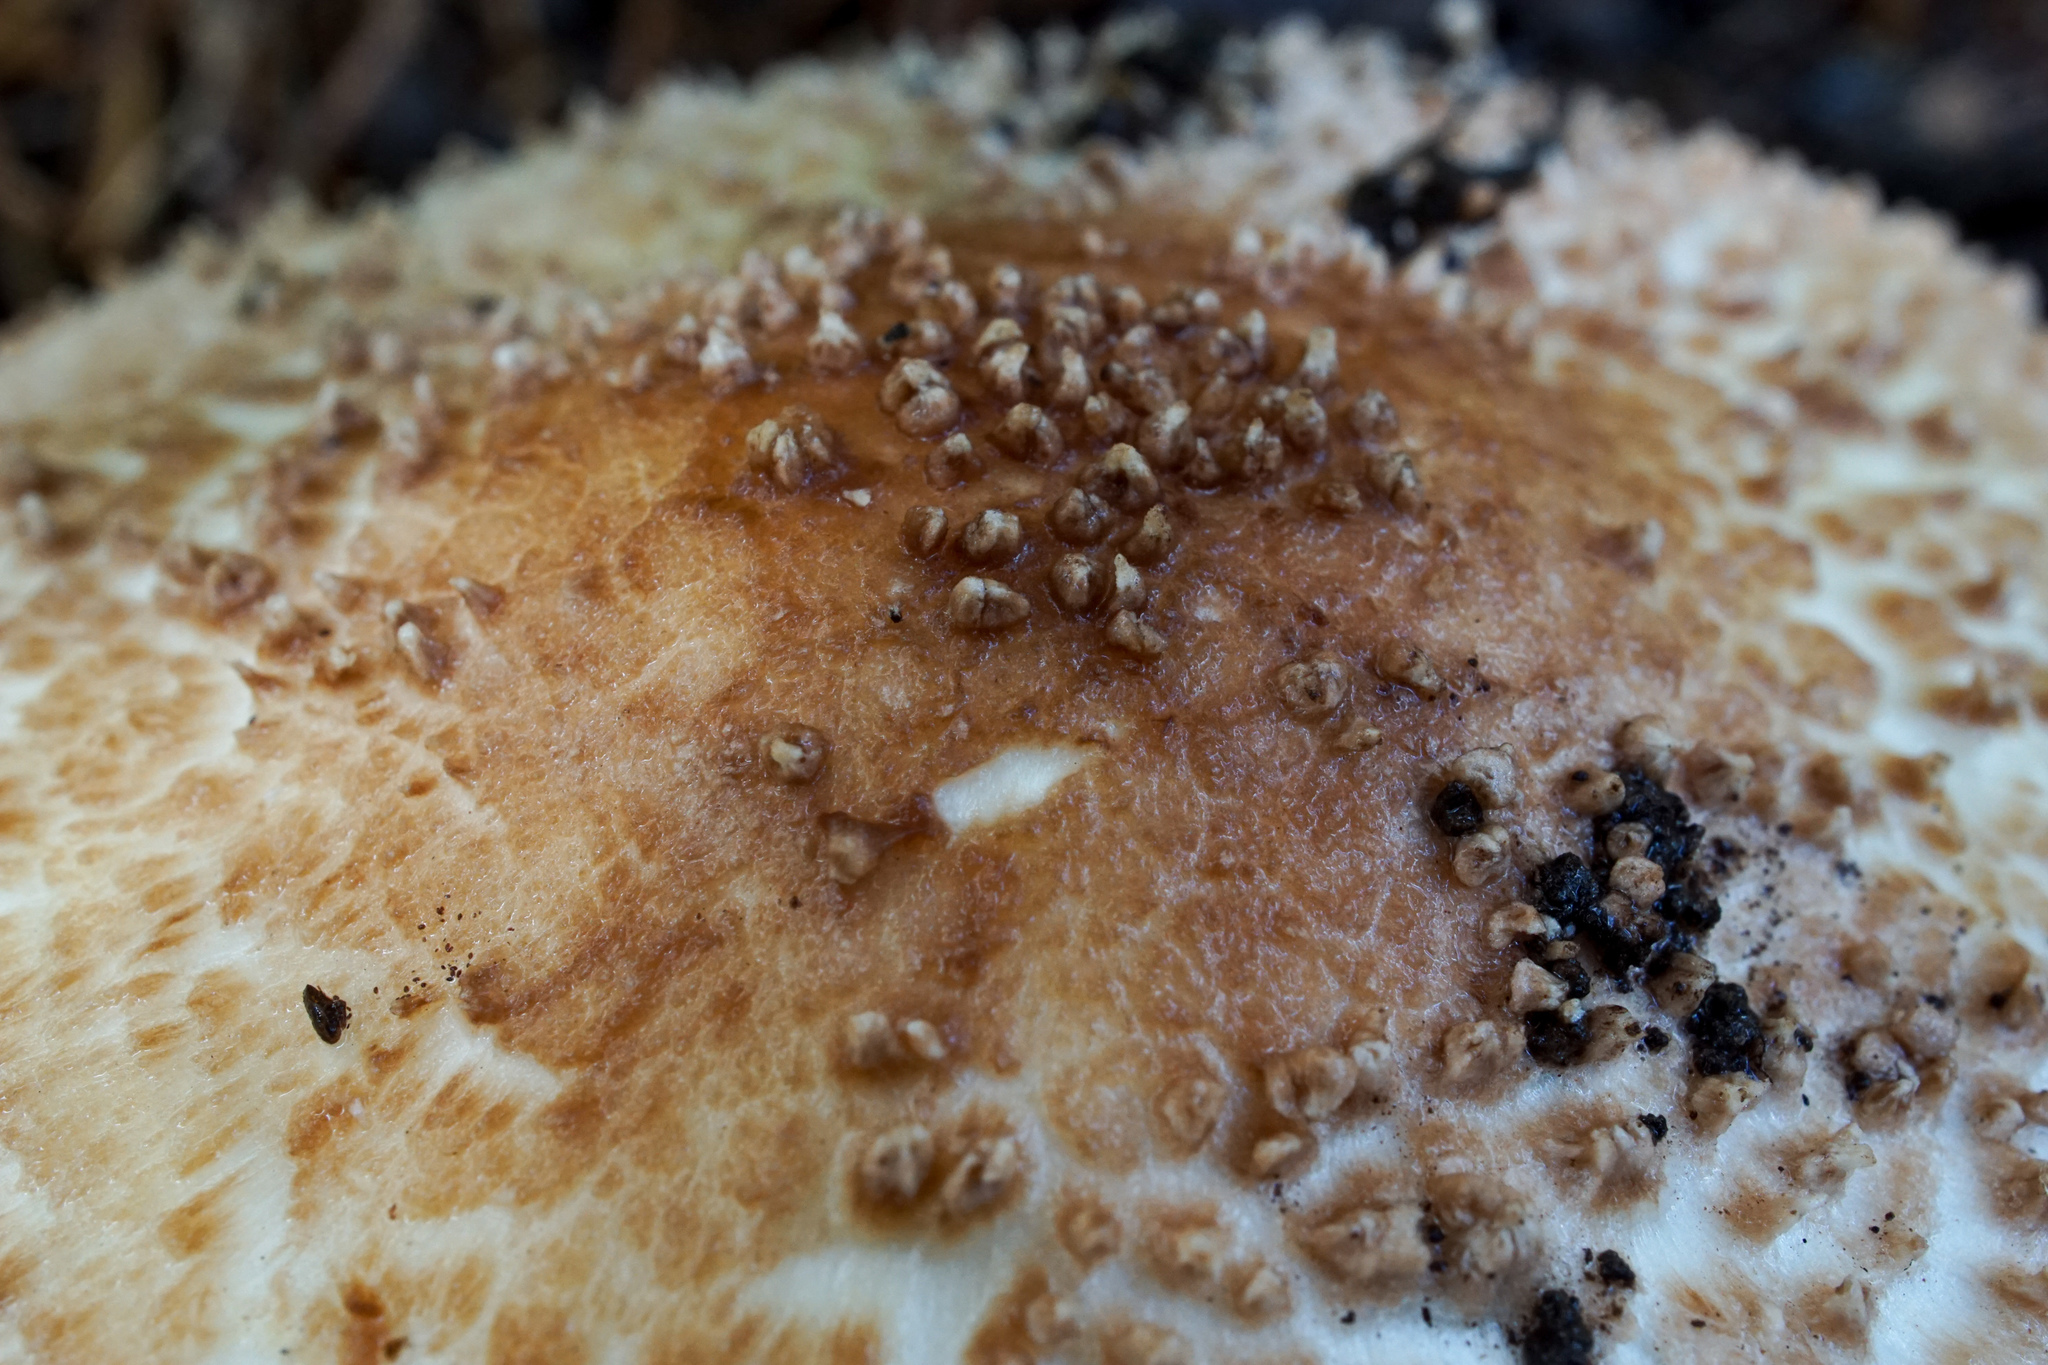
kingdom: Fungi
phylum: Basidiomycota
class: Agaricomycetes
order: Agaricales
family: Agaricaceae
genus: Echinoderma
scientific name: Echinoderma asperum
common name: Freckled dapperling
